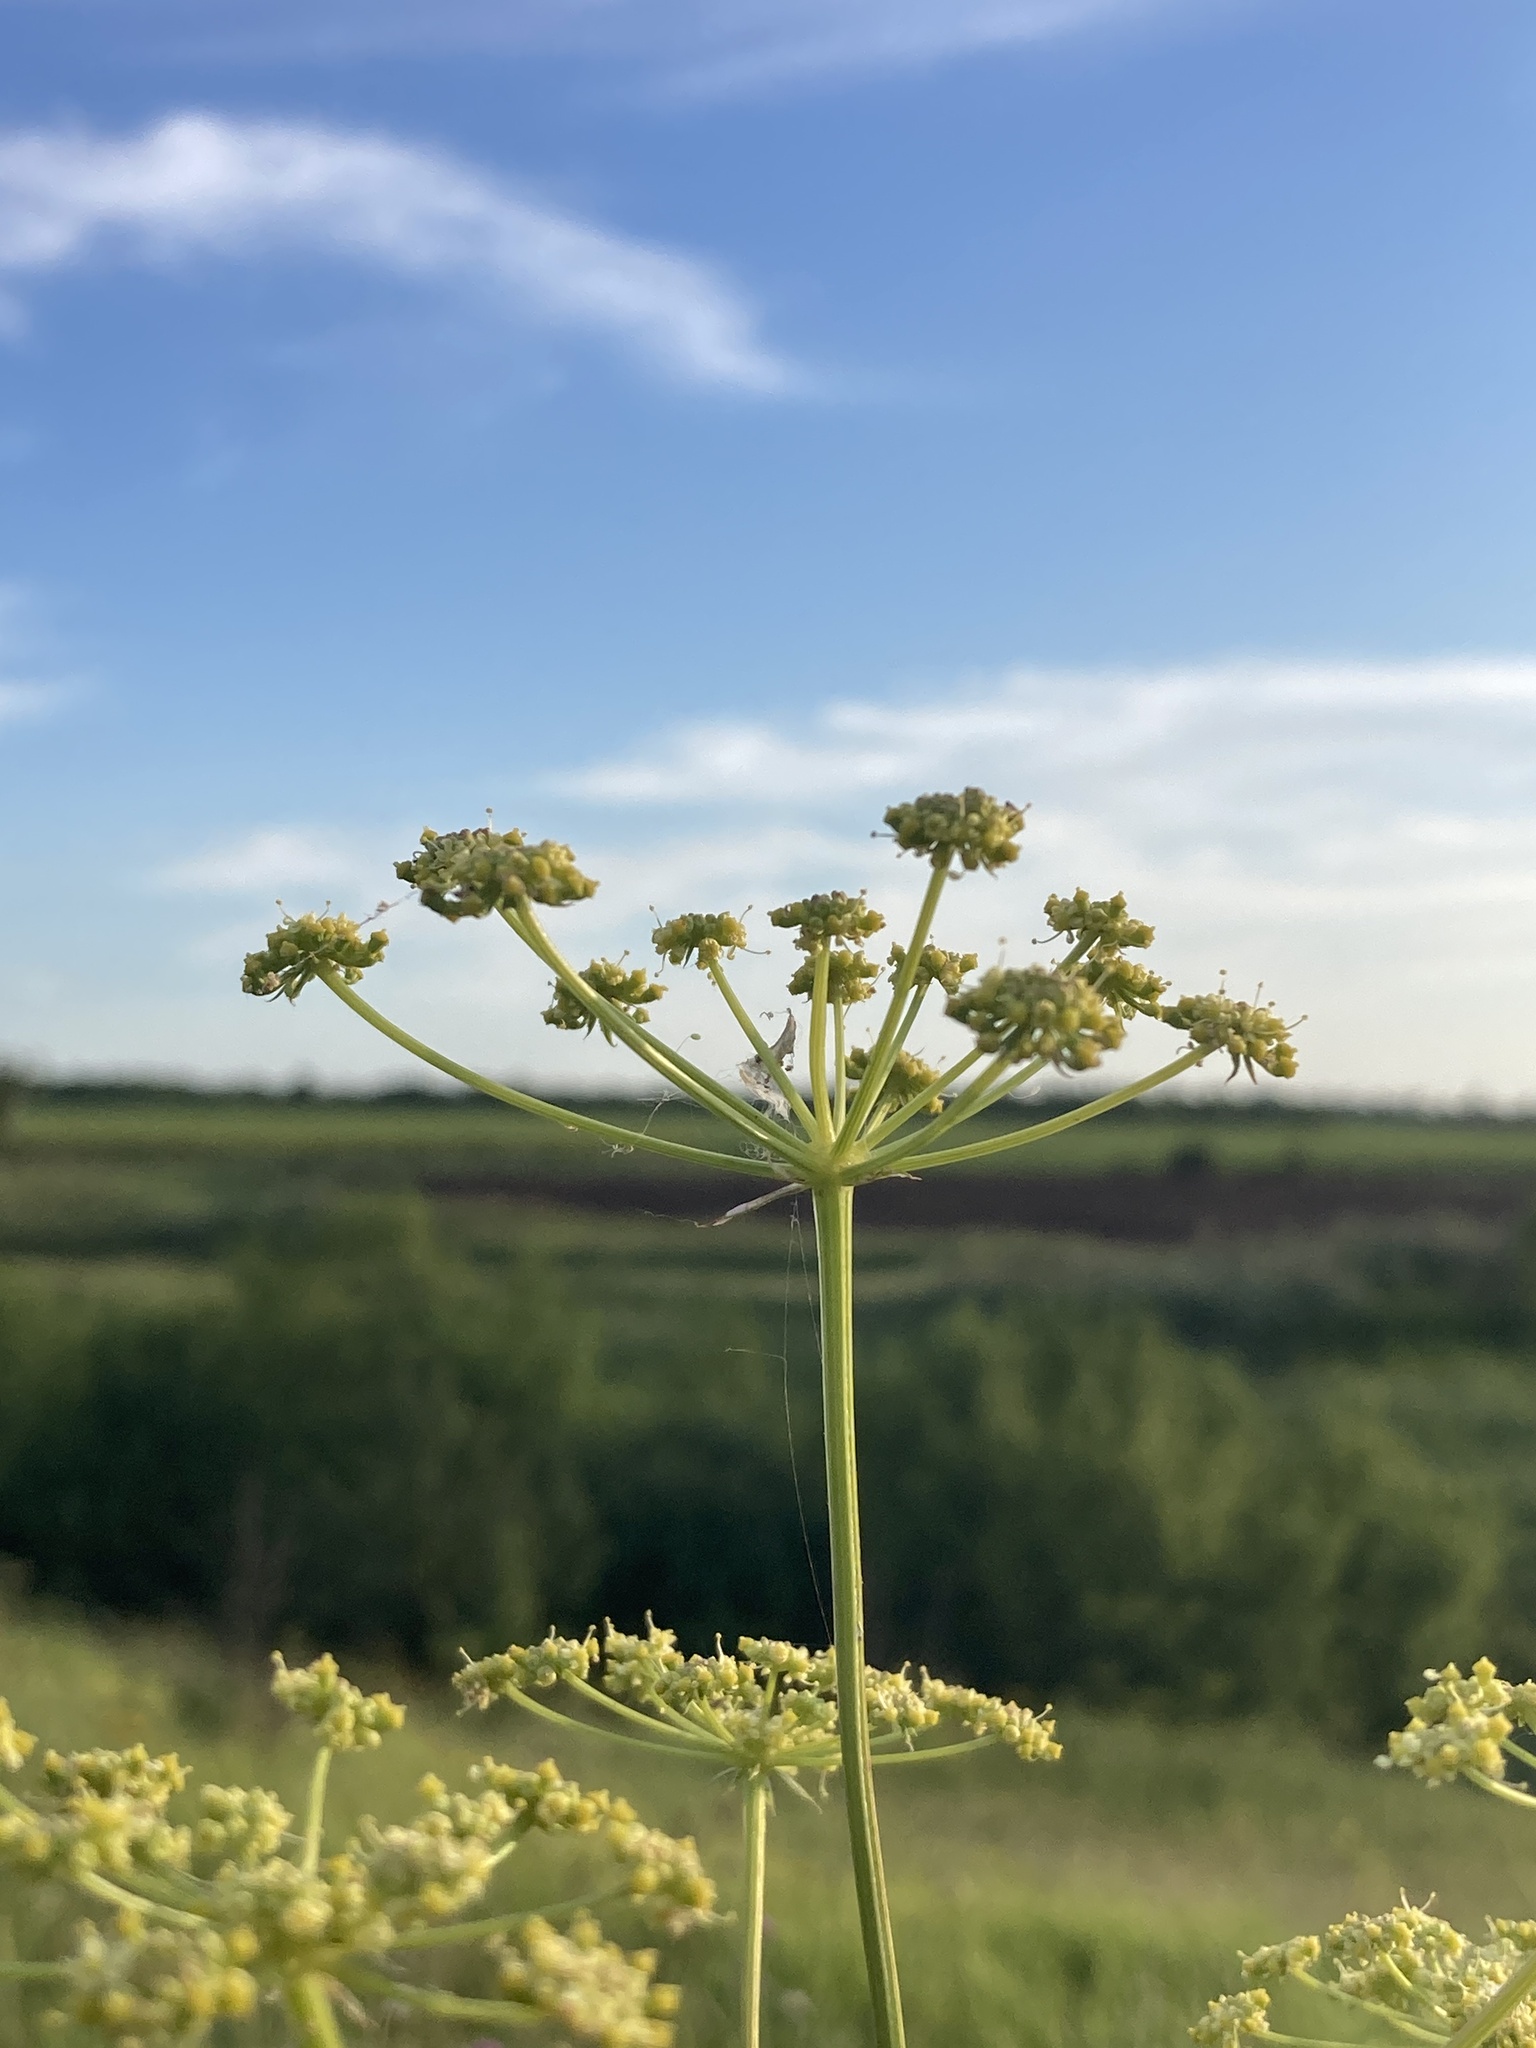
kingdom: Plantae
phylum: Tracheophyta
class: Magnoliopsida
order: Apiales
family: Apiaceae
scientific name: Apiaceae
